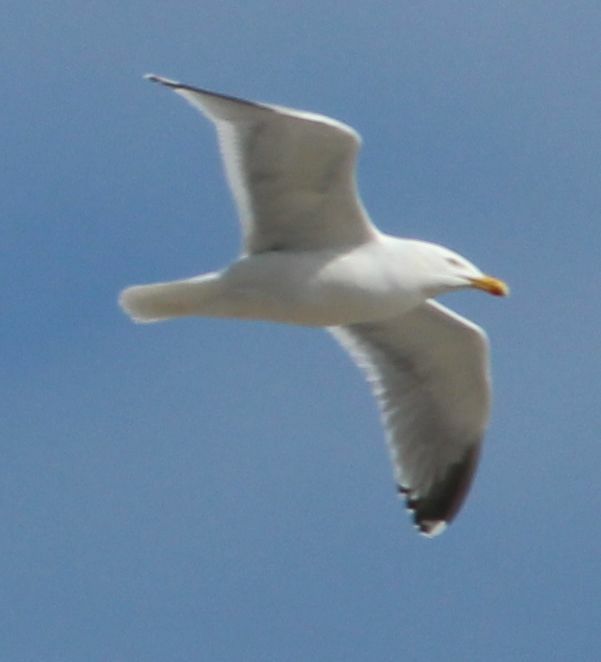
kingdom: Animalia
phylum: Chordata
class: Aves
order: Charadriiformes
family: Laridae
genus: Larus
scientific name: Larus argentatus
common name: Herring gull
